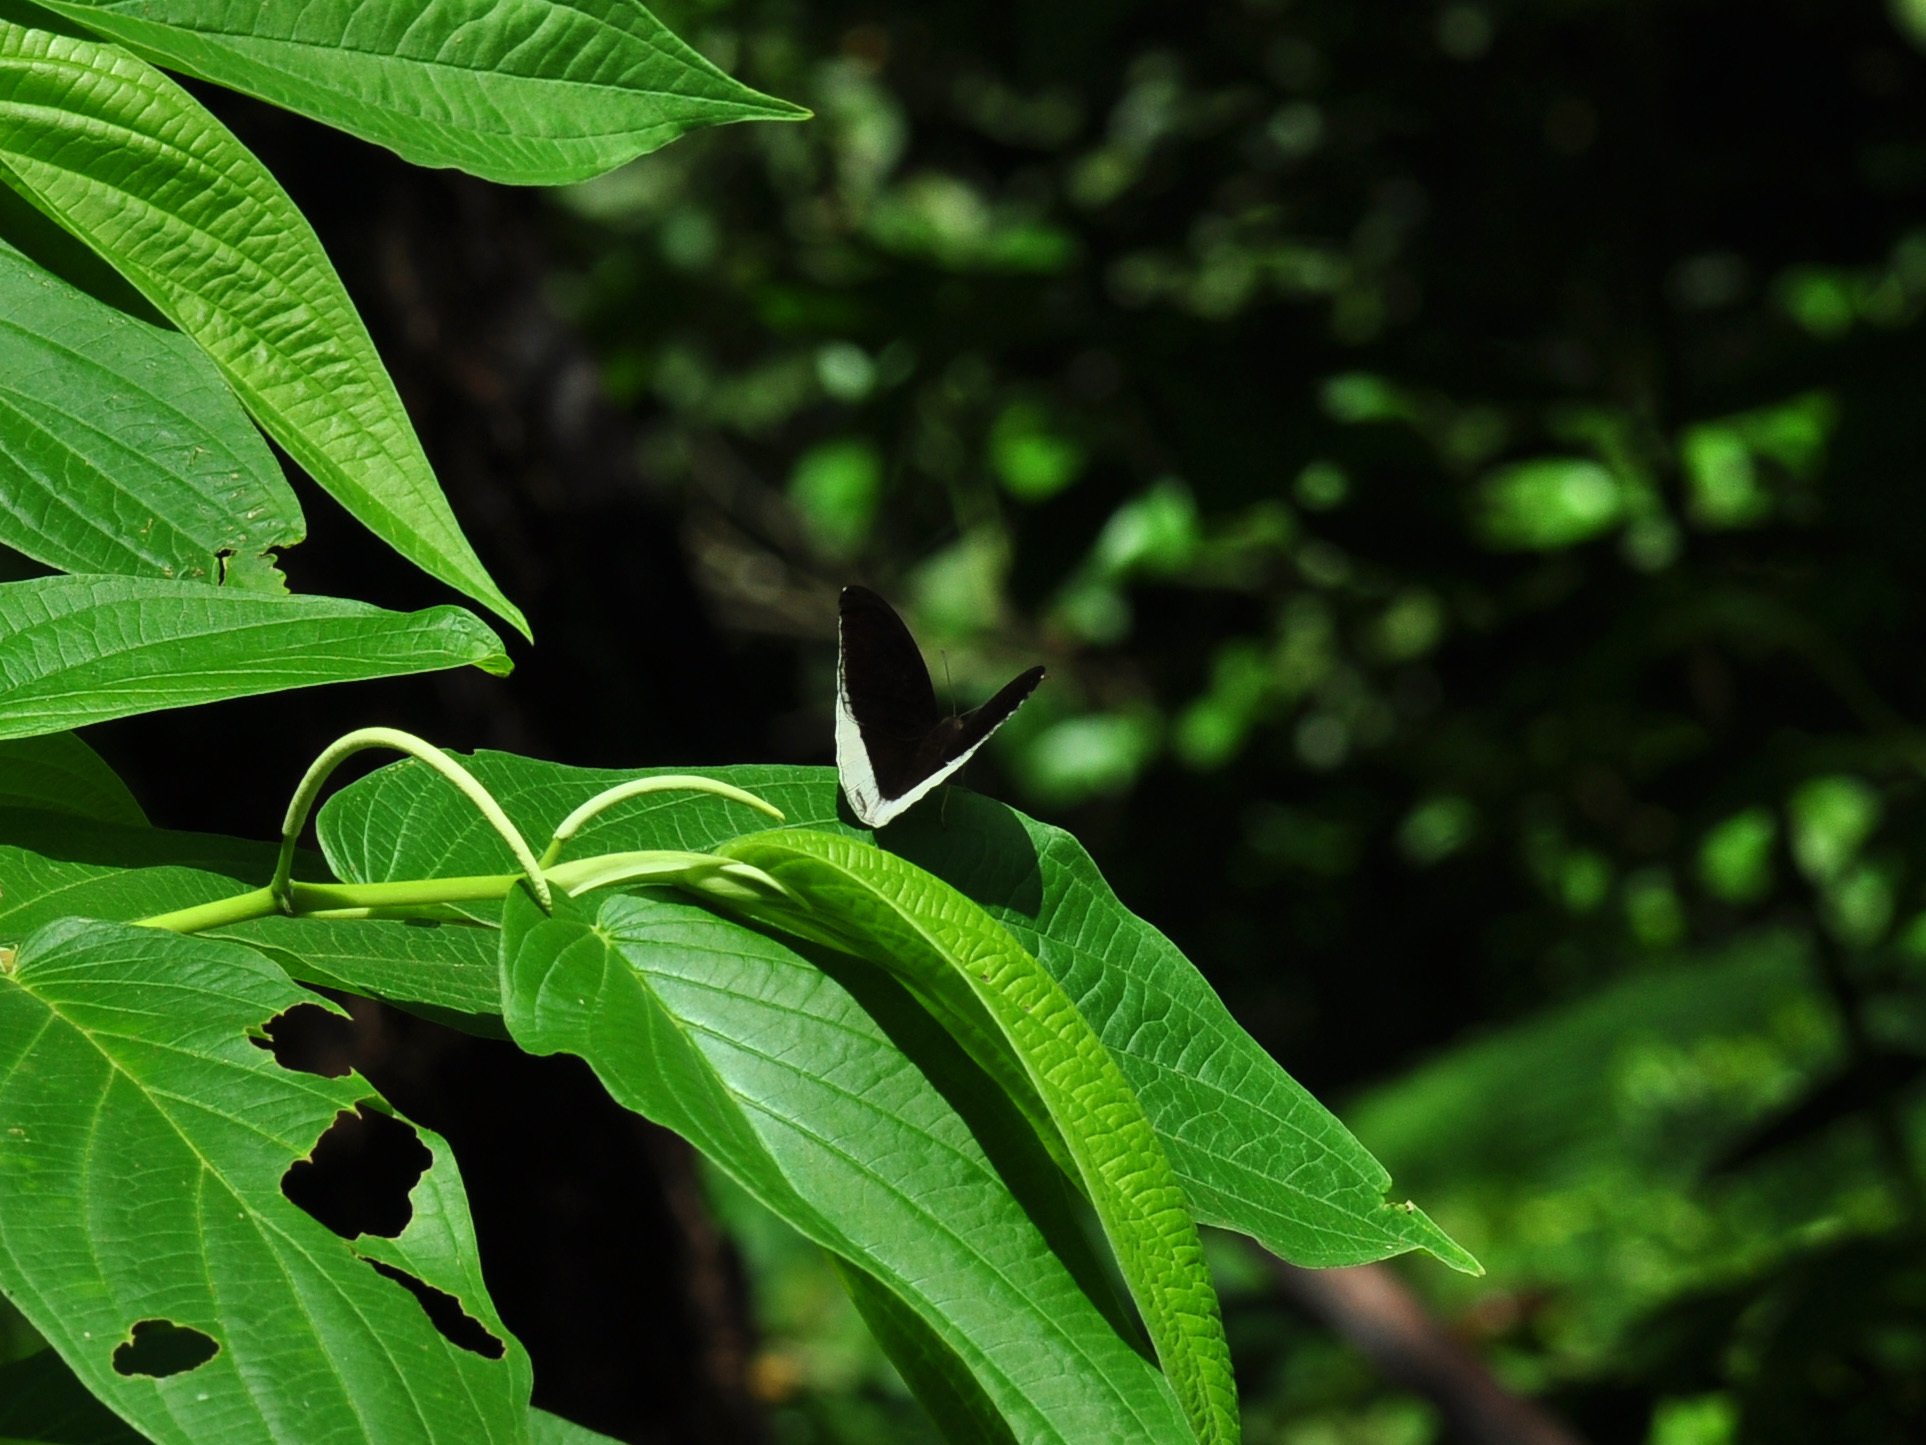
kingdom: Animalia
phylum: Arthropoda
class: Insecta
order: Lepidoptera
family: Nymphalidae
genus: Tanaecia
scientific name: Tanaecia lepidea
